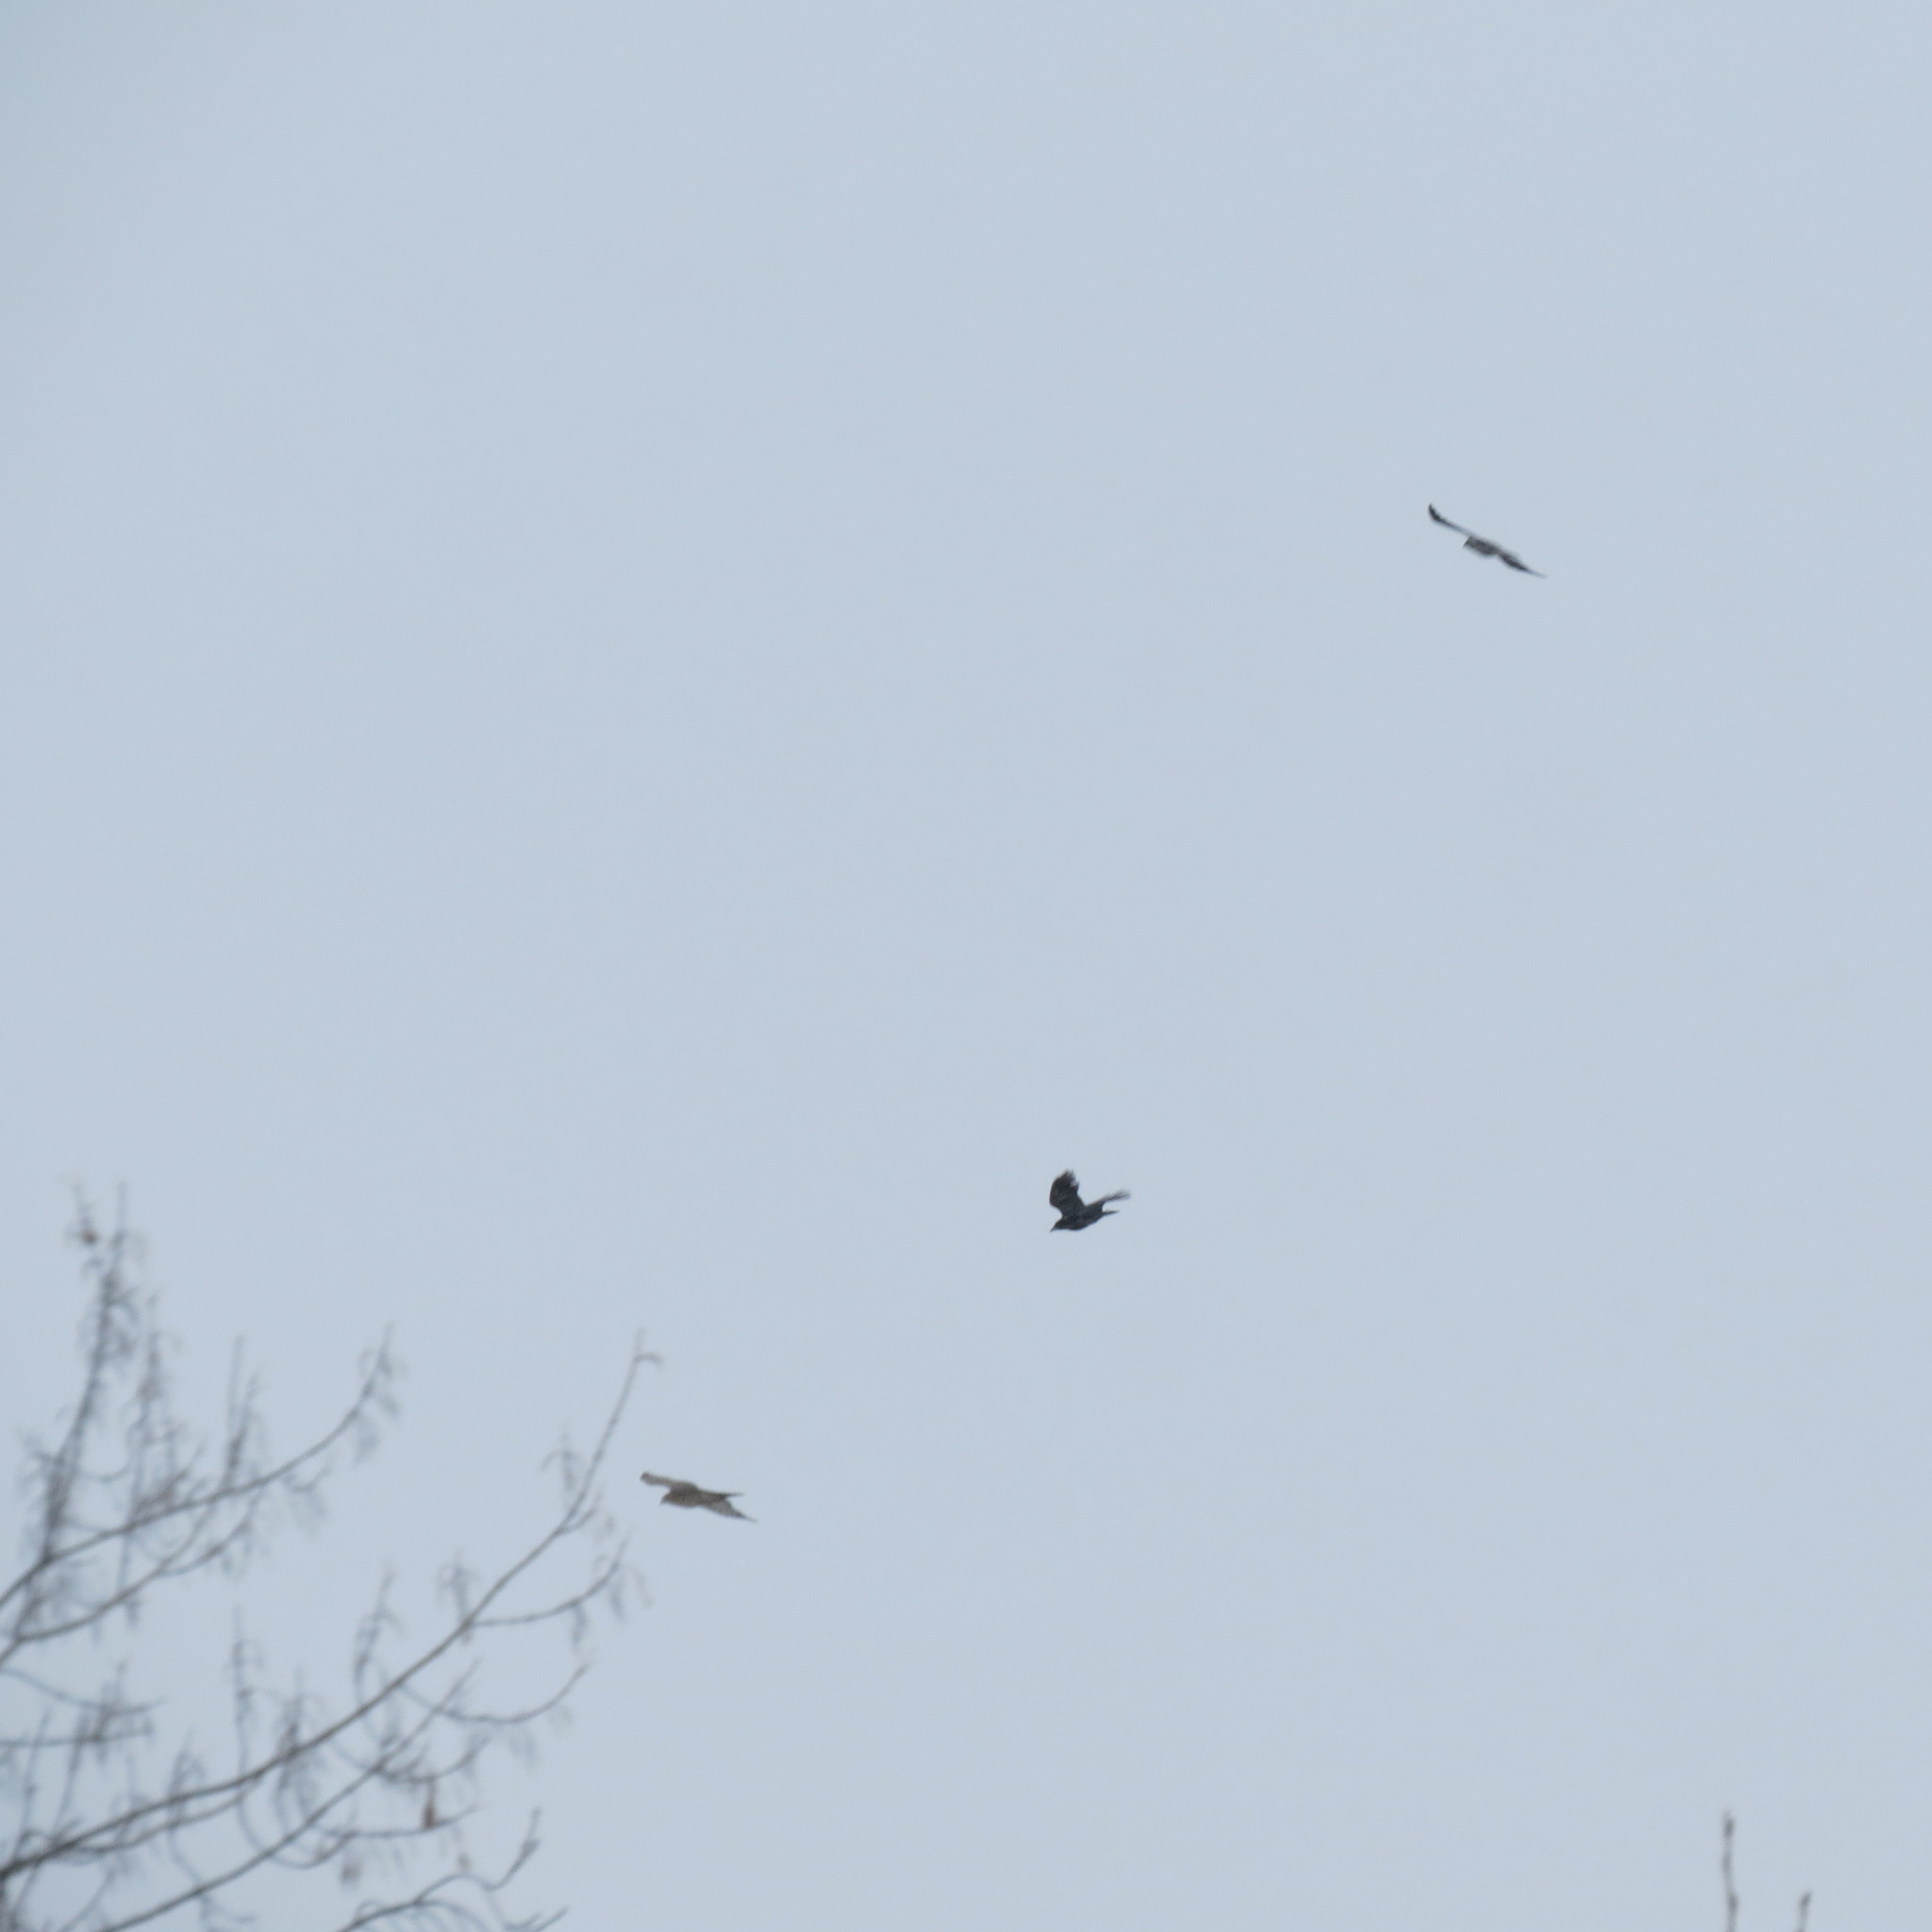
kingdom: Animalia
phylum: Chordata
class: Aves
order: Accipitriformes
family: Accipitridae
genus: Accipiter
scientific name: Accipiter gentilis
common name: Northern goshawk
